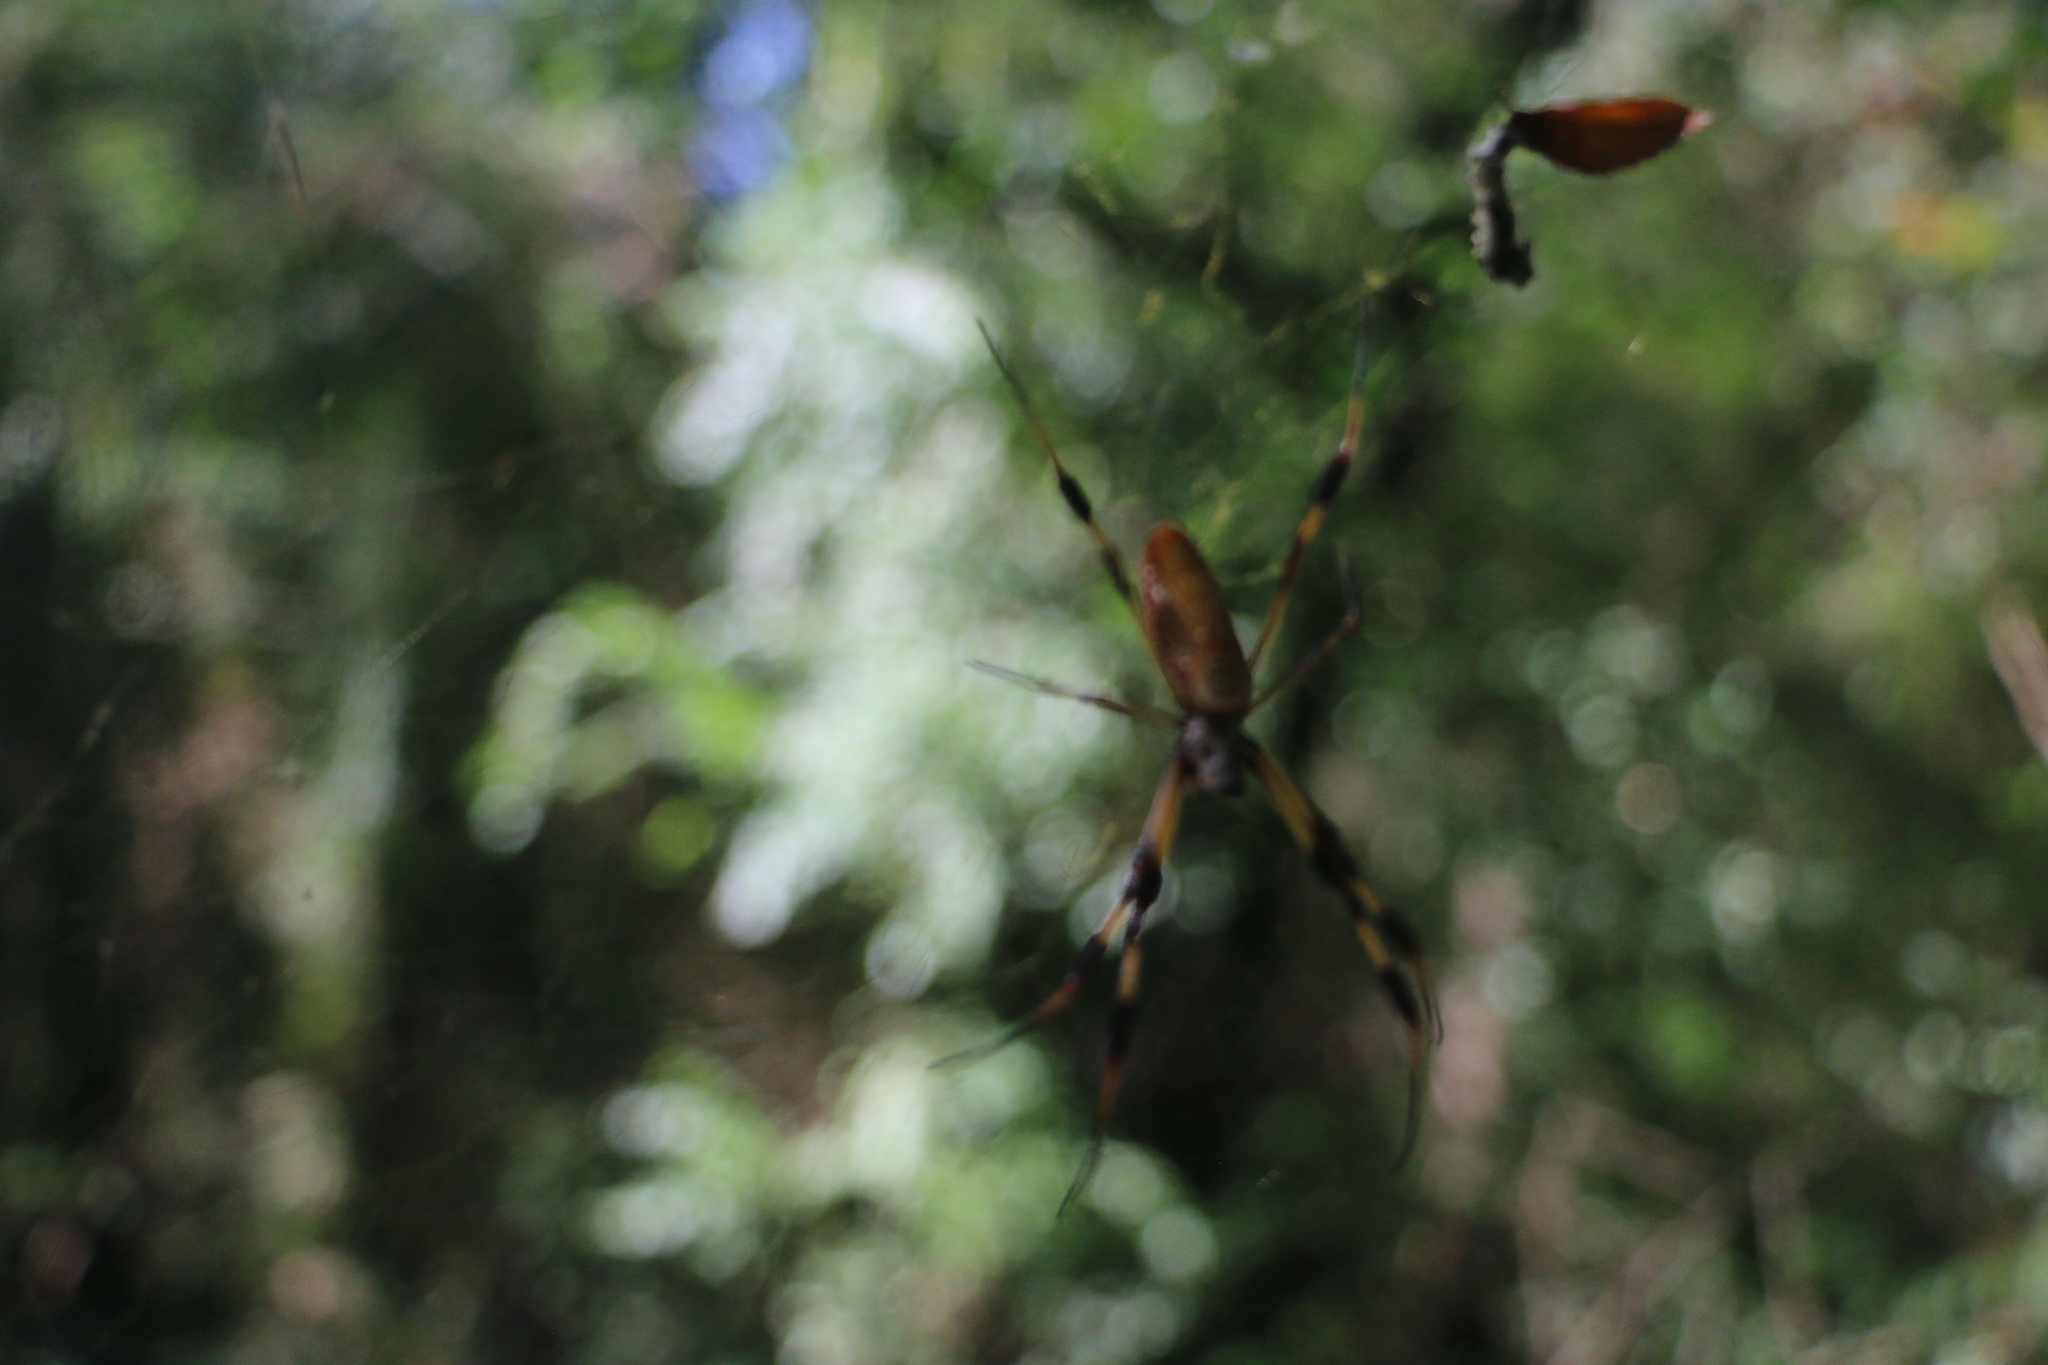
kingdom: Animalia
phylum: Arthropoda
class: Arachnida
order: Araneae
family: Araneidae
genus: Trichonephila
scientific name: Trichonephila clavipes
